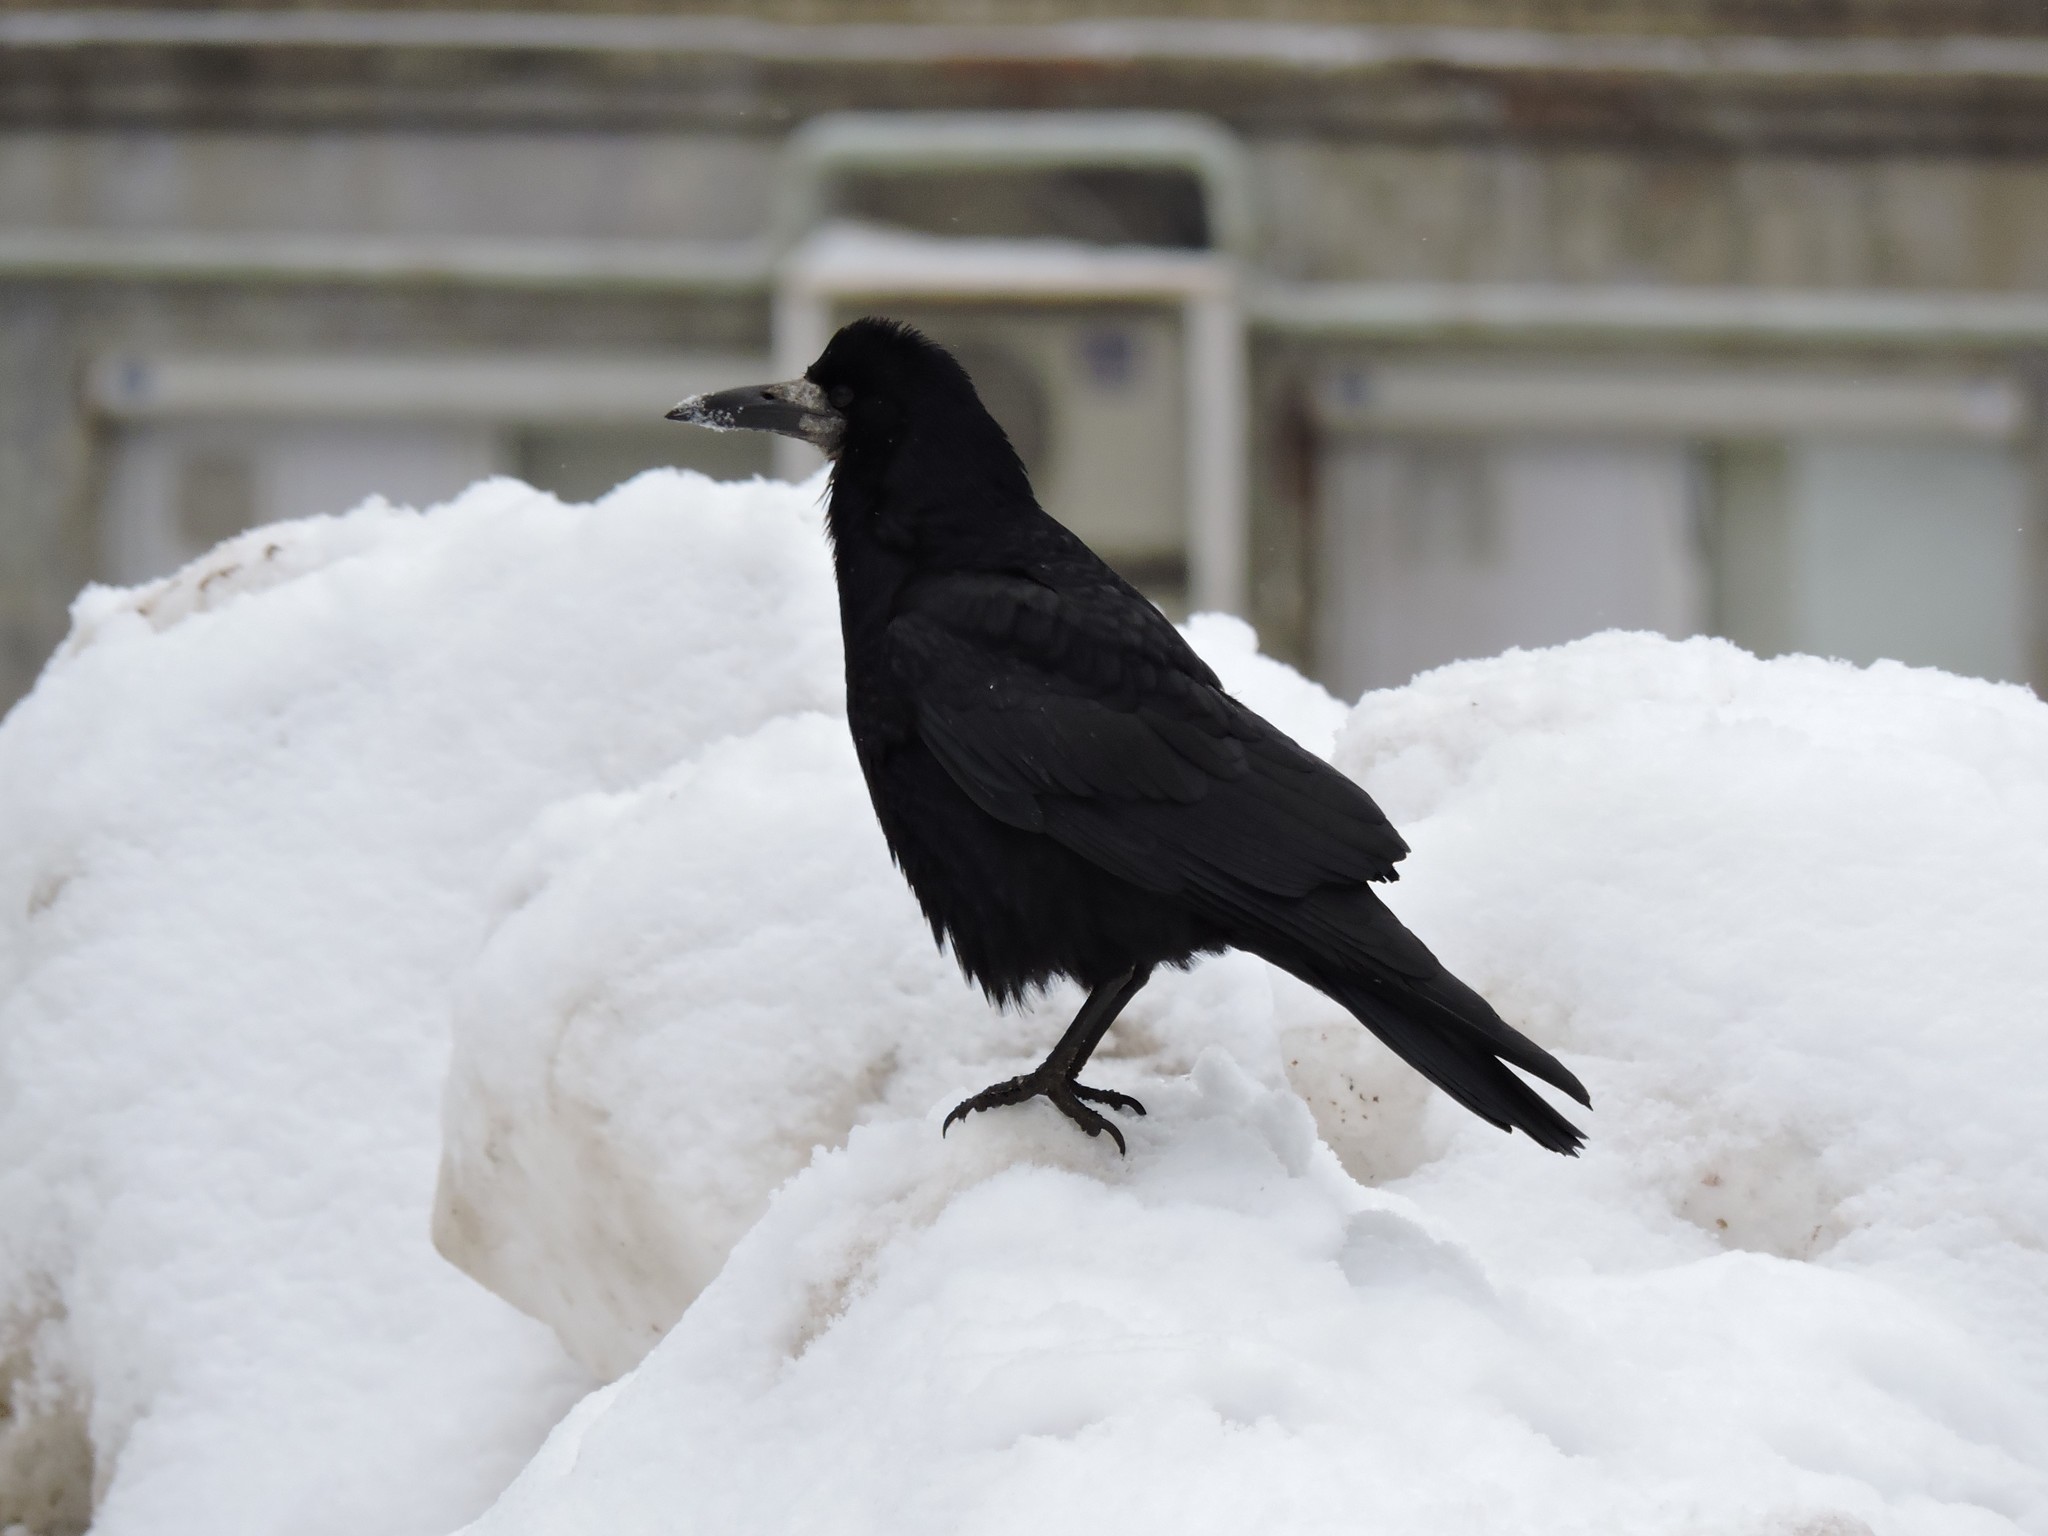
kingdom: Animalia
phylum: Chordata
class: Aves
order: Passeriformes
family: Corvidae
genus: Corvus
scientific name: Corvus frugilegus
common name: Rook
